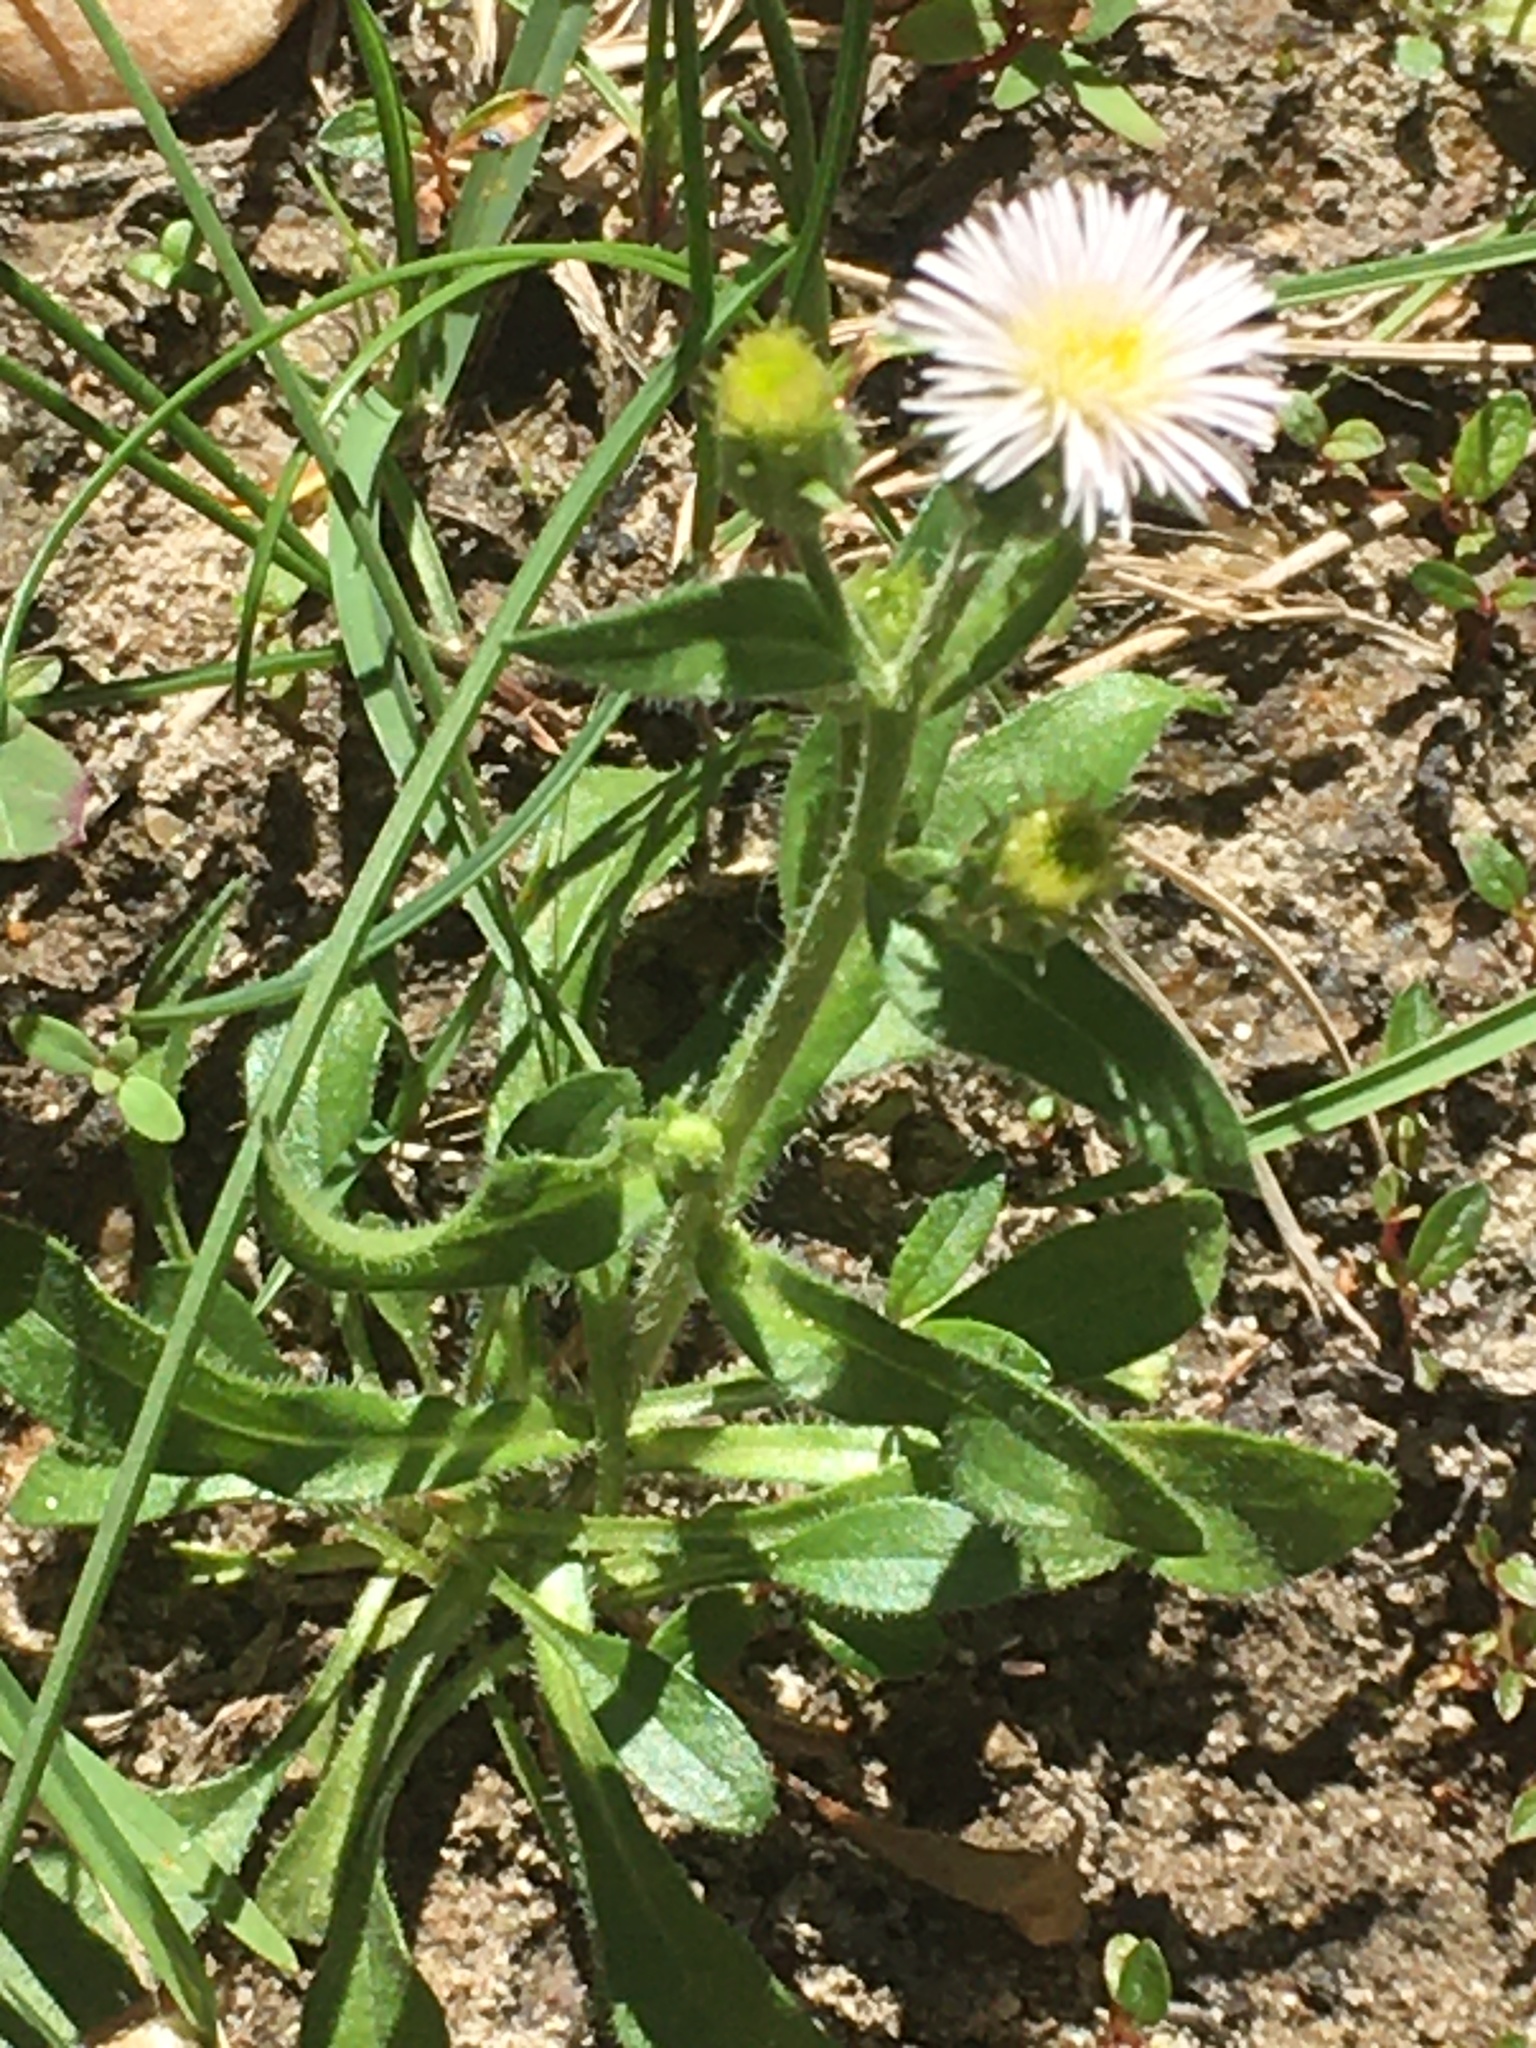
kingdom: Plantae
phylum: Tracheophyta
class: Magnoliopsida
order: Asterales
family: Asteraceae
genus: Erigeron
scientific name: Erigeron acris
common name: Blue fleabane
